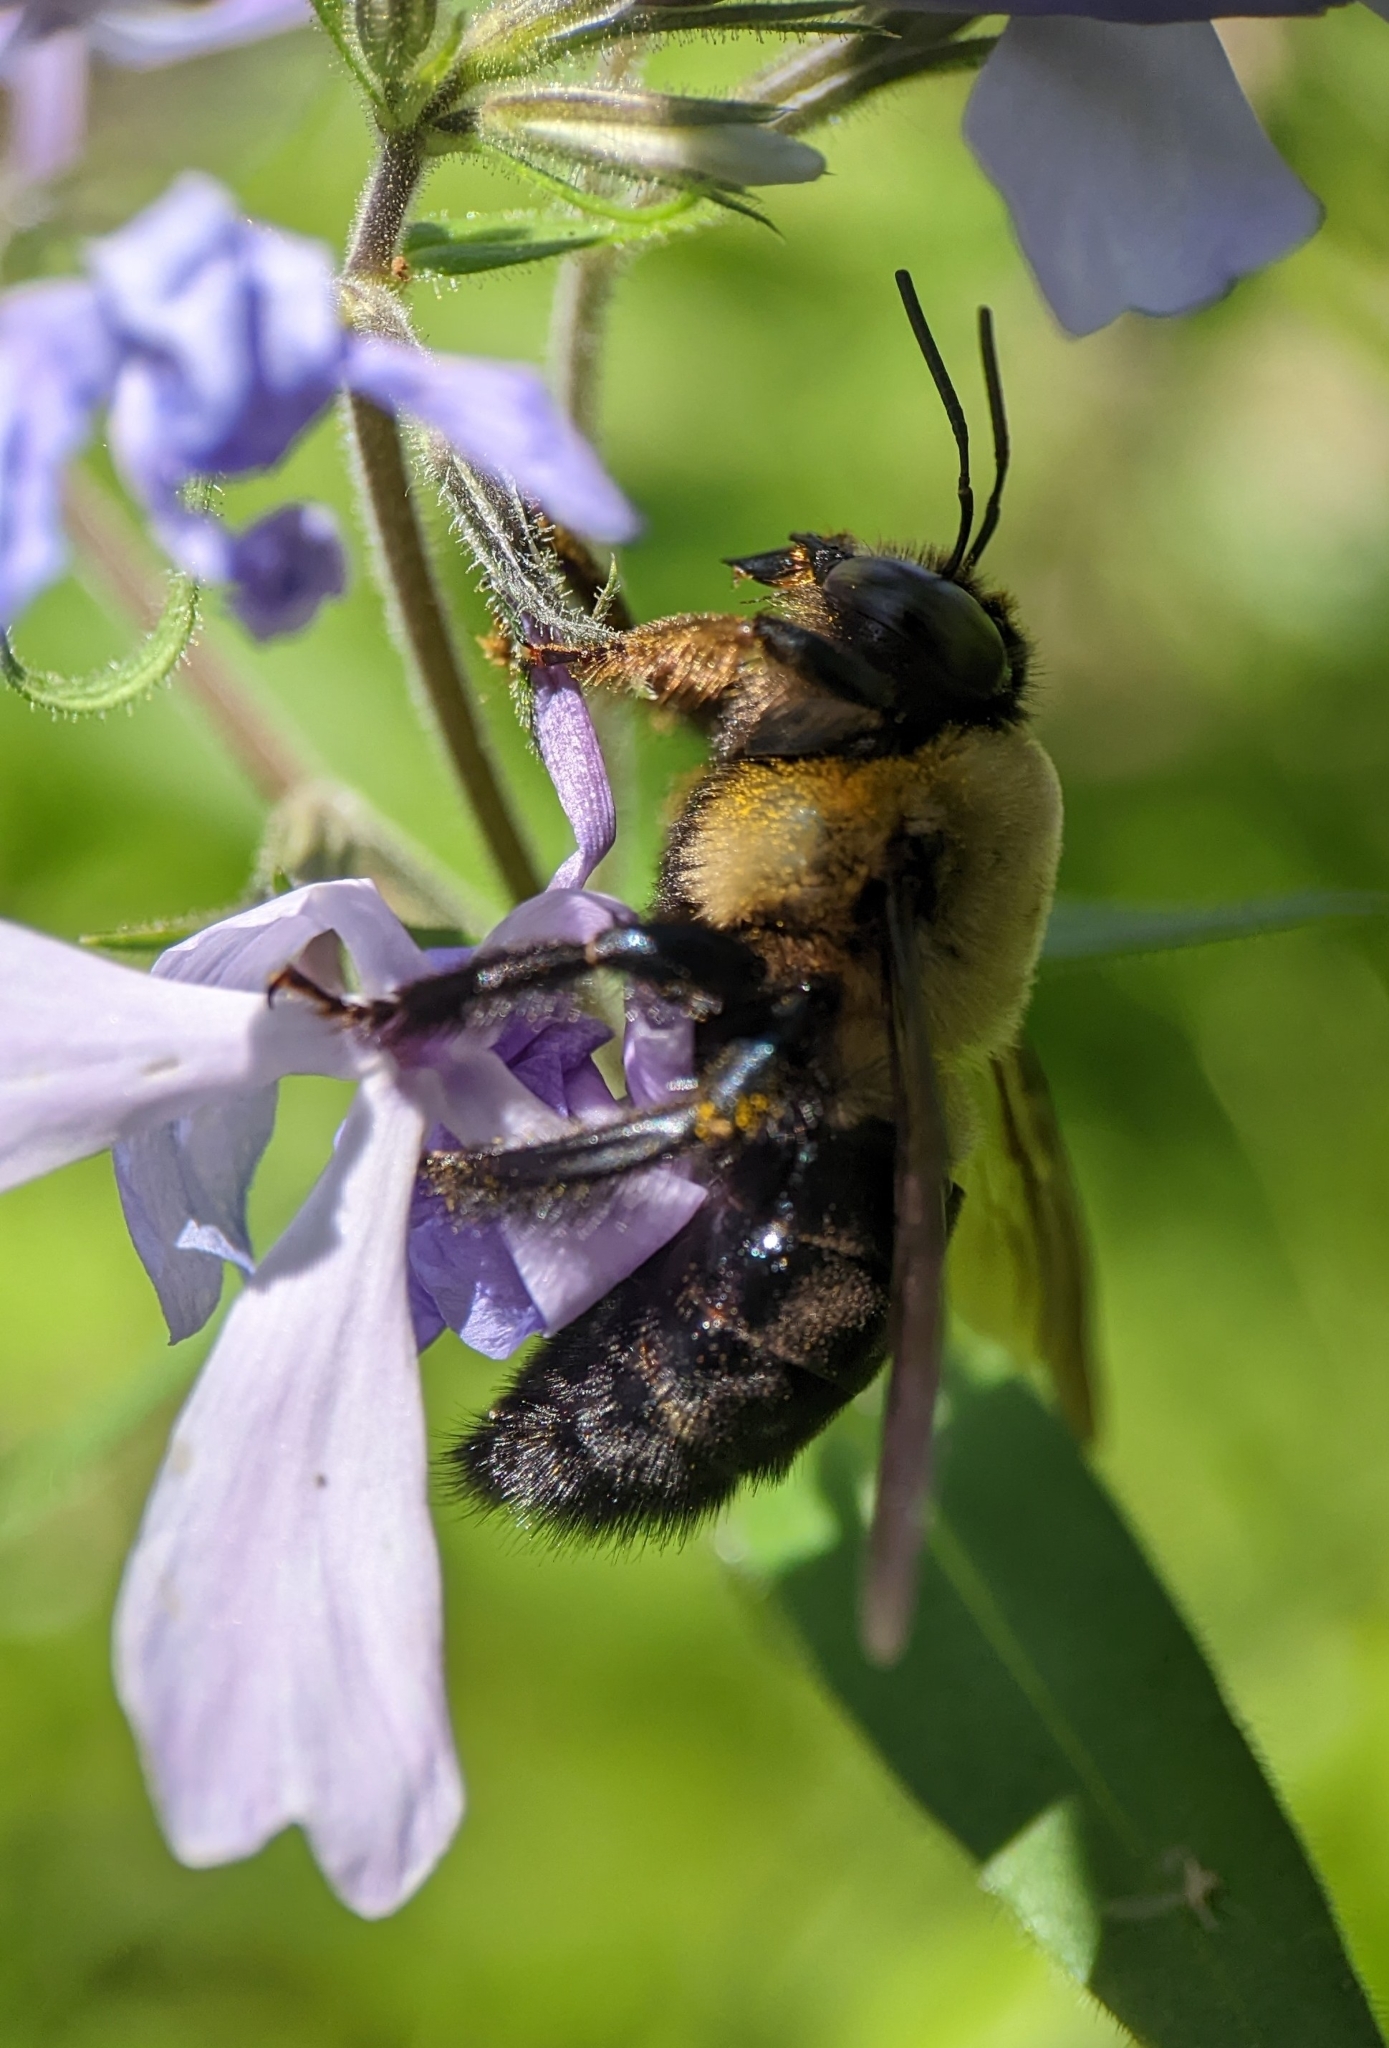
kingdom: Animalia
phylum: Arthropoda
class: Insecta
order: Hymenoptera
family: Apidae
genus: Xylocopa
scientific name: Xylocopa virginica
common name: Carpenter bee
